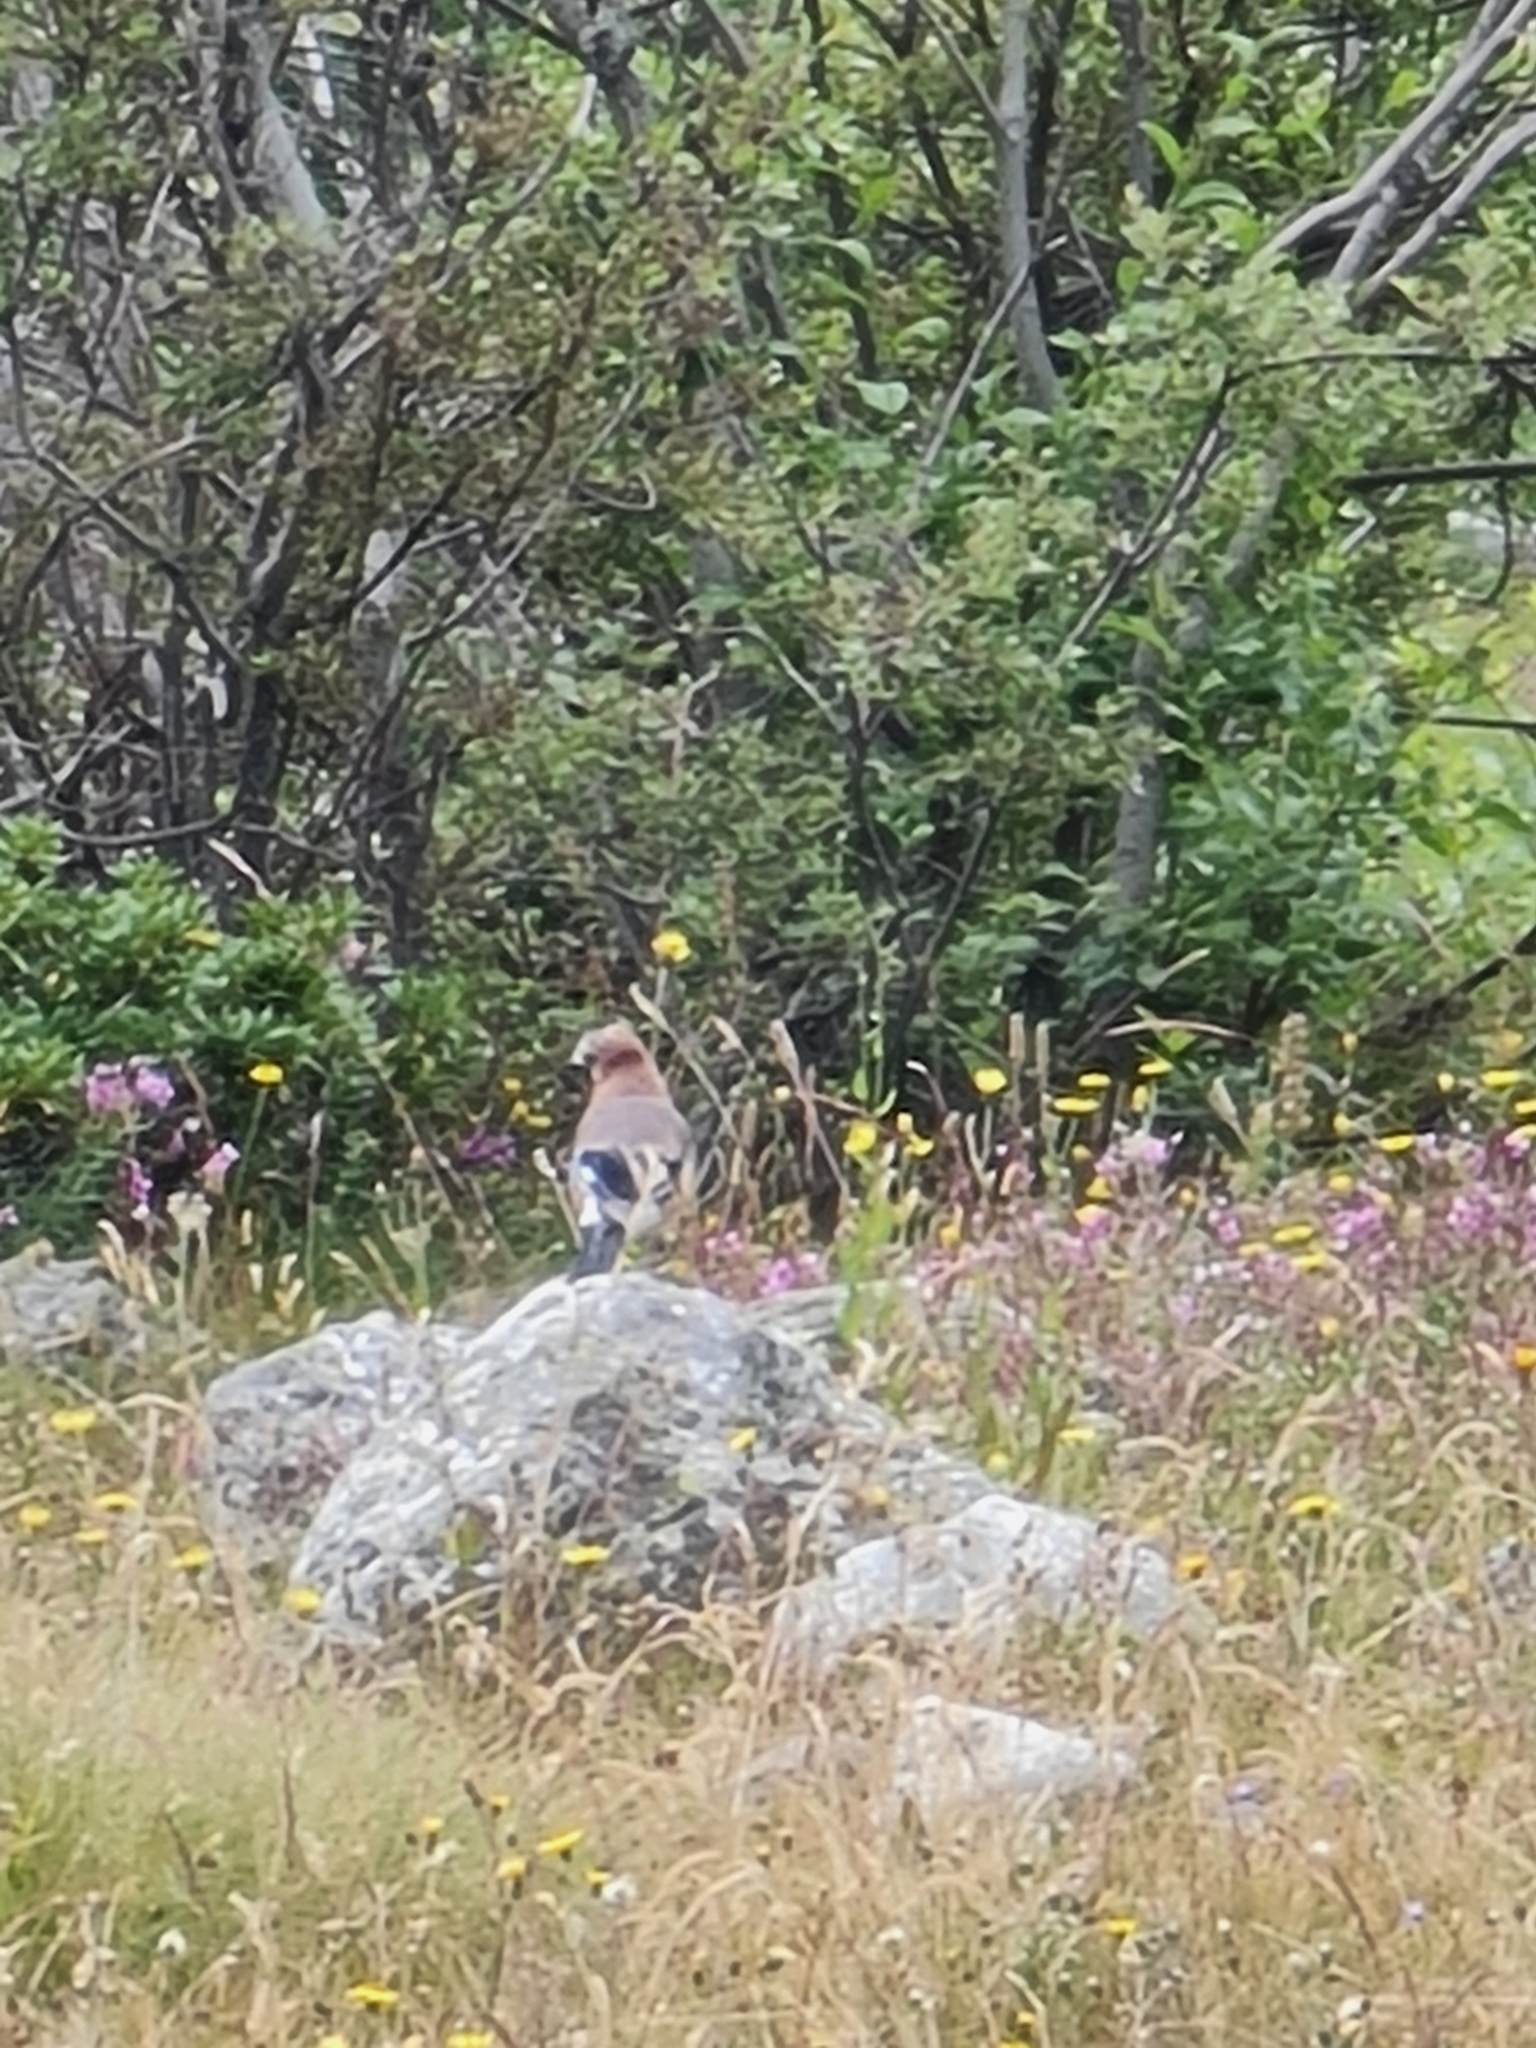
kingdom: Animalia
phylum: Chordata
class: Aves
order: Passeriformes
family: Corvidae
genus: Garrulus
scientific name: Garrulus glandarius
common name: Eurasian jay
